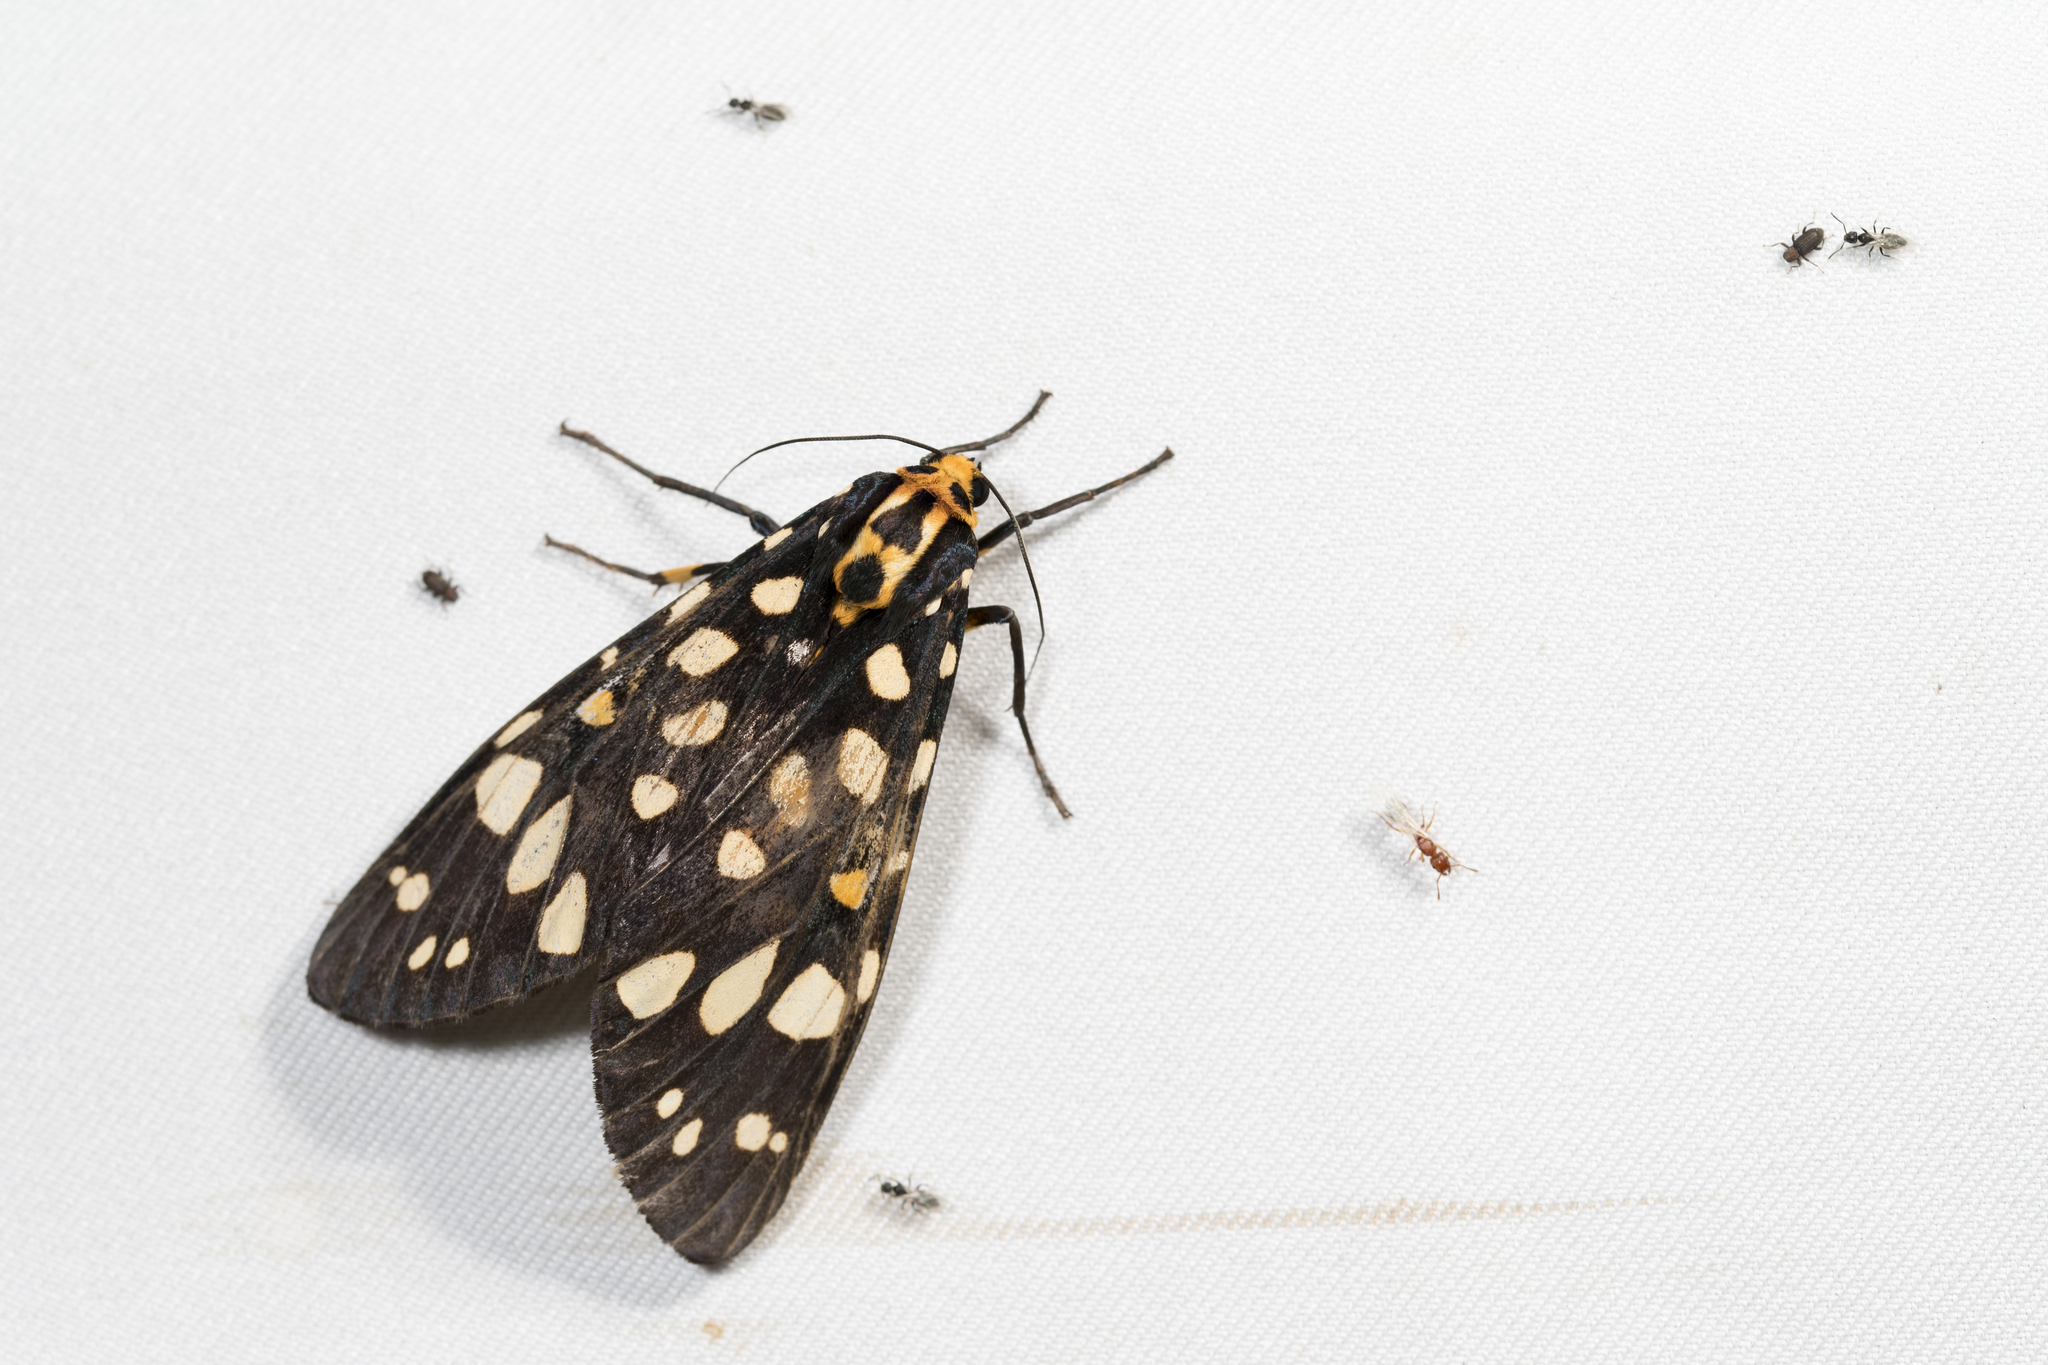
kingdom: Animalia
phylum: Arthropoda
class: Insecta
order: Lepidoptera
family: Erebidae
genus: Aglaomorpha
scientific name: Aglaomorpha histrio
